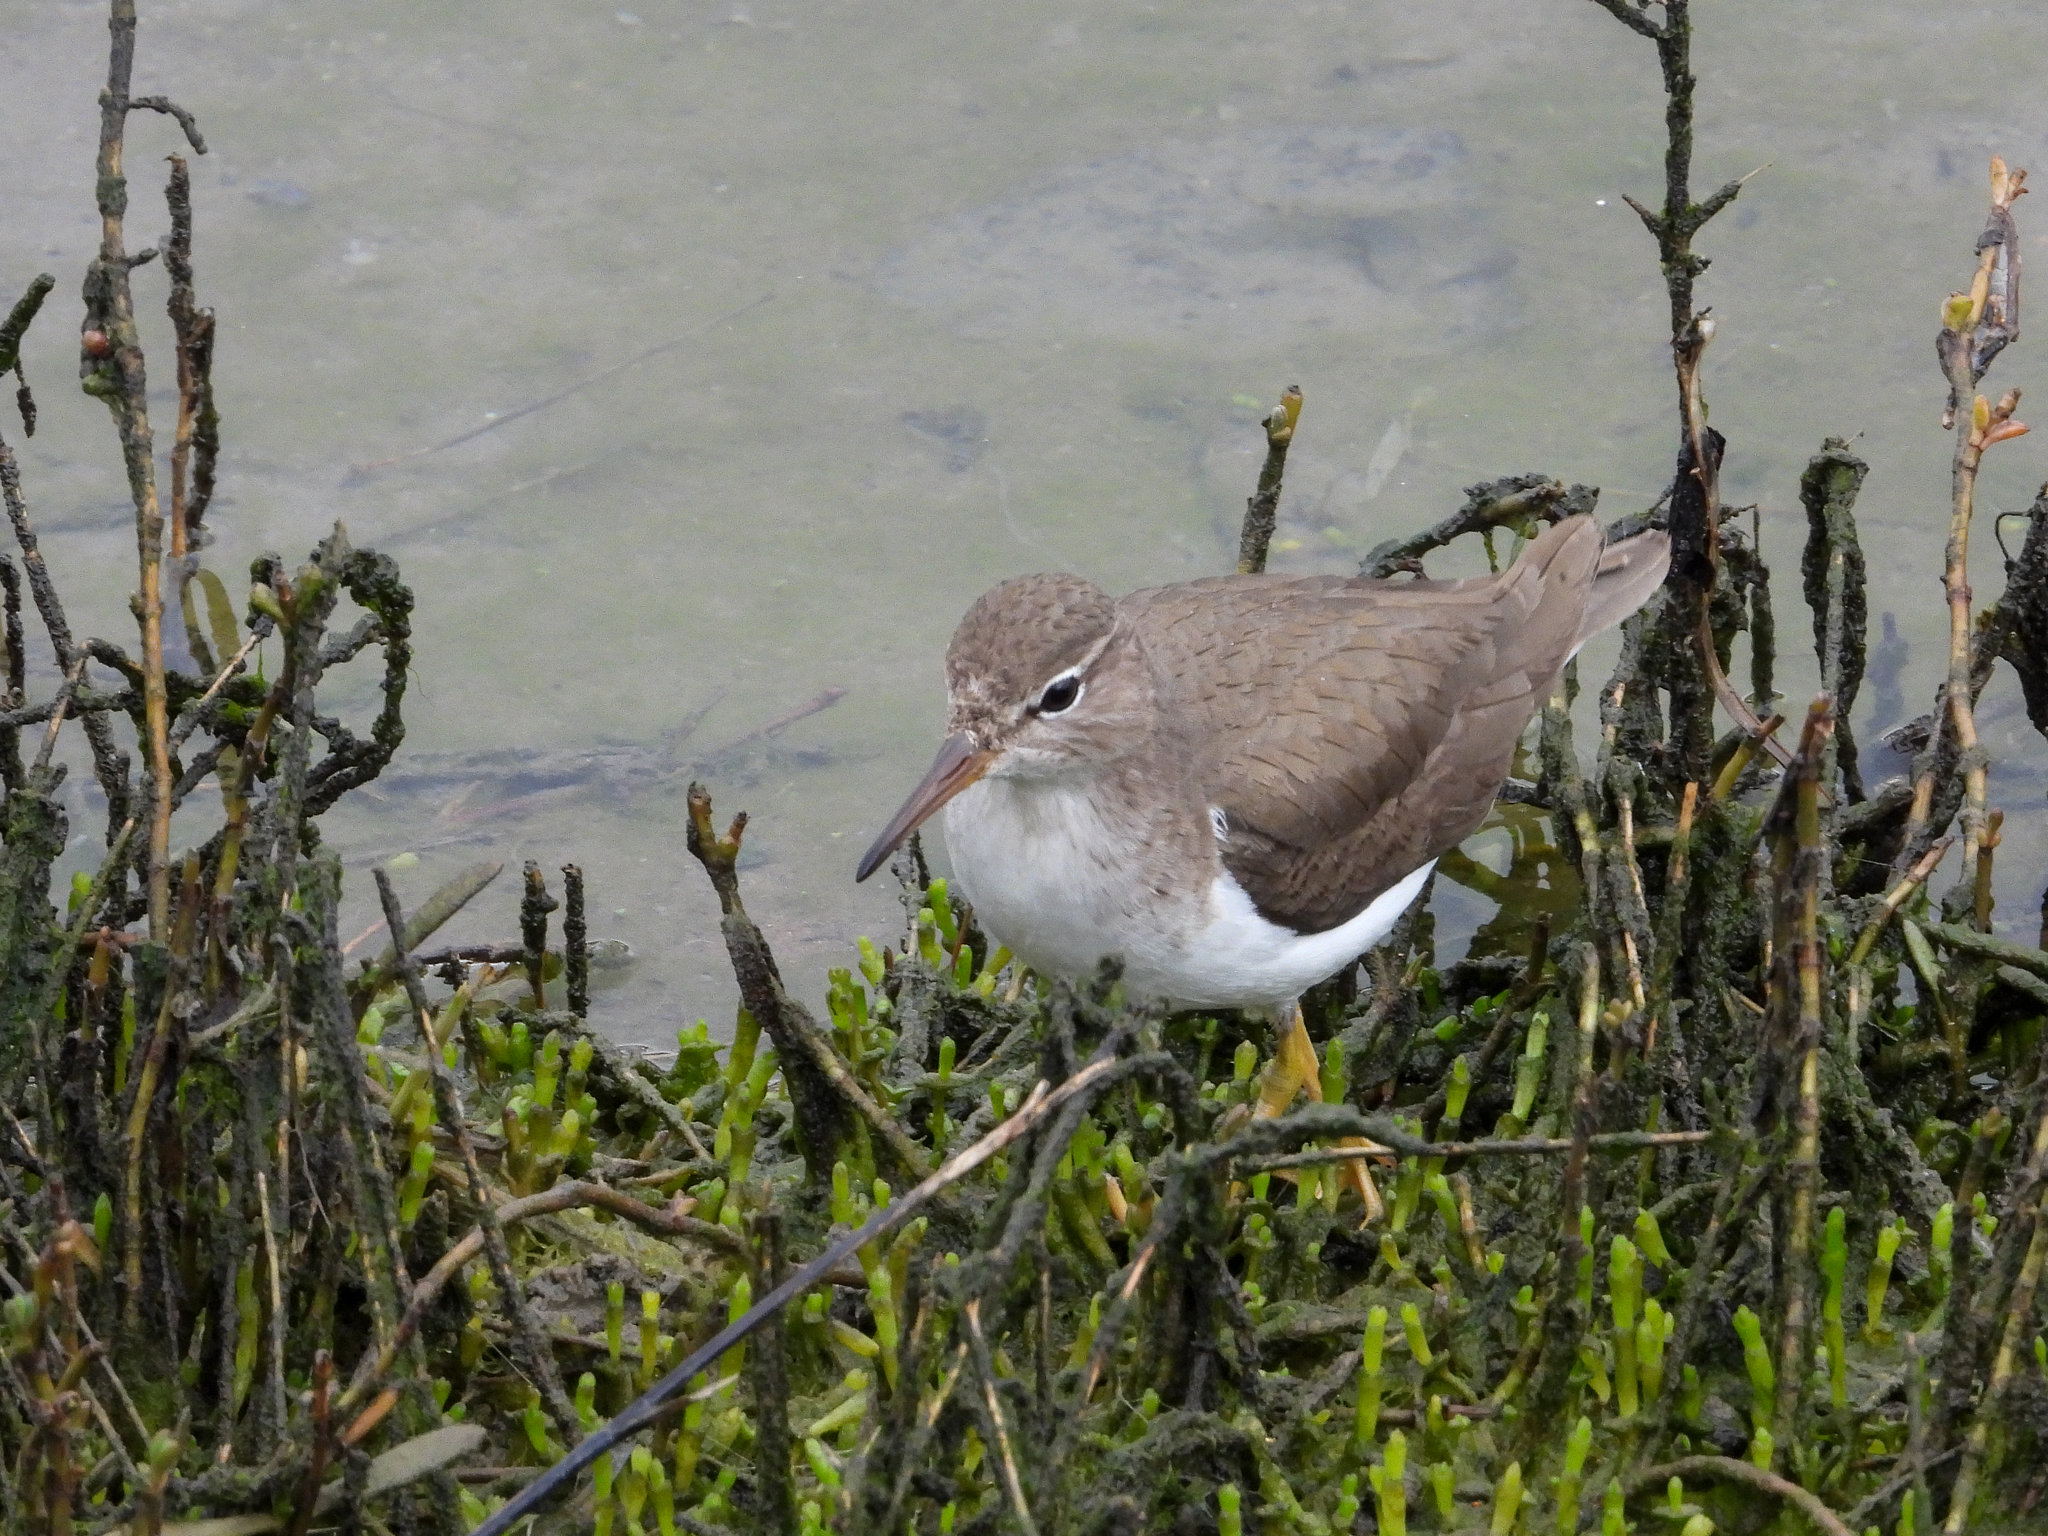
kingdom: Animalia
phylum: Chordata
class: Aves
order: Charadriiformes
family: Scolopacidae
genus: Actitis
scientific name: Actitis macularius
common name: Spotted sandpiper
